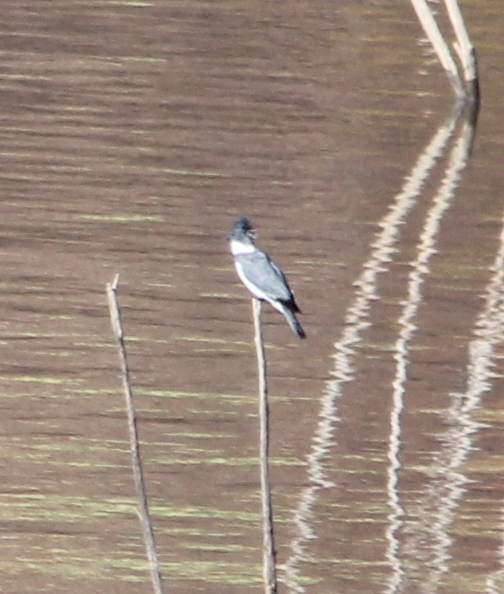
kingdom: Animalia
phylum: Chordata
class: Aves
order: Coraciiformes
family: Alcedinidae
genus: Megaceryle
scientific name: Megaceryle alcyon
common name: Belted kingfisher
